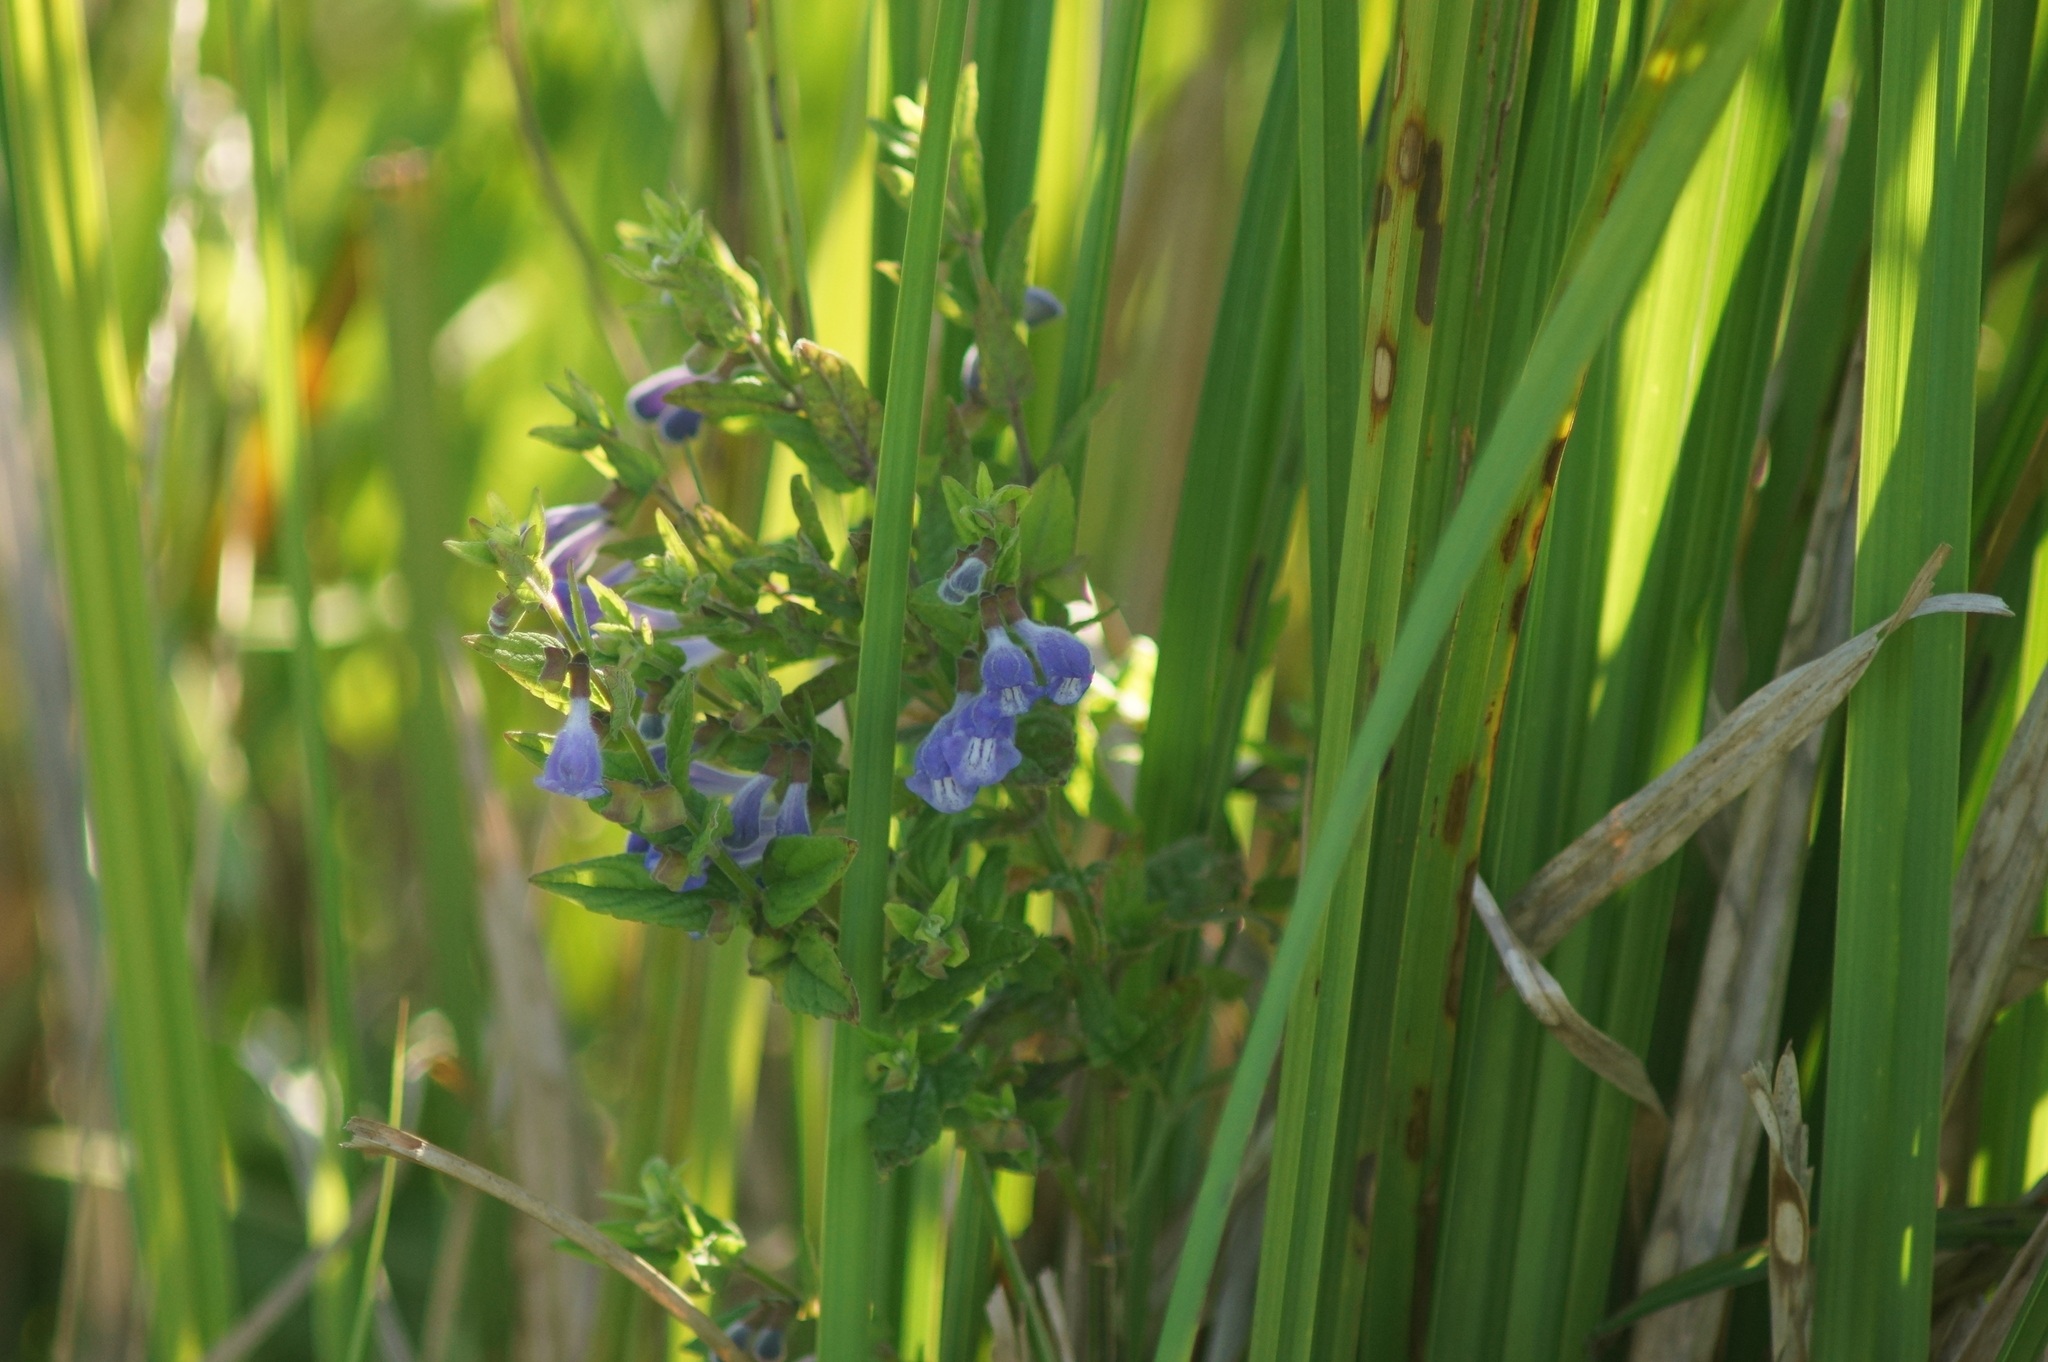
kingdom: Plantae
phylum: Tracheophyta
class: Magnoliopsida
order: Lamiales
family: Lamiaceae
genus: Scutellaria
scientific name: Scutellaria galericulata
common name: Skullcap
